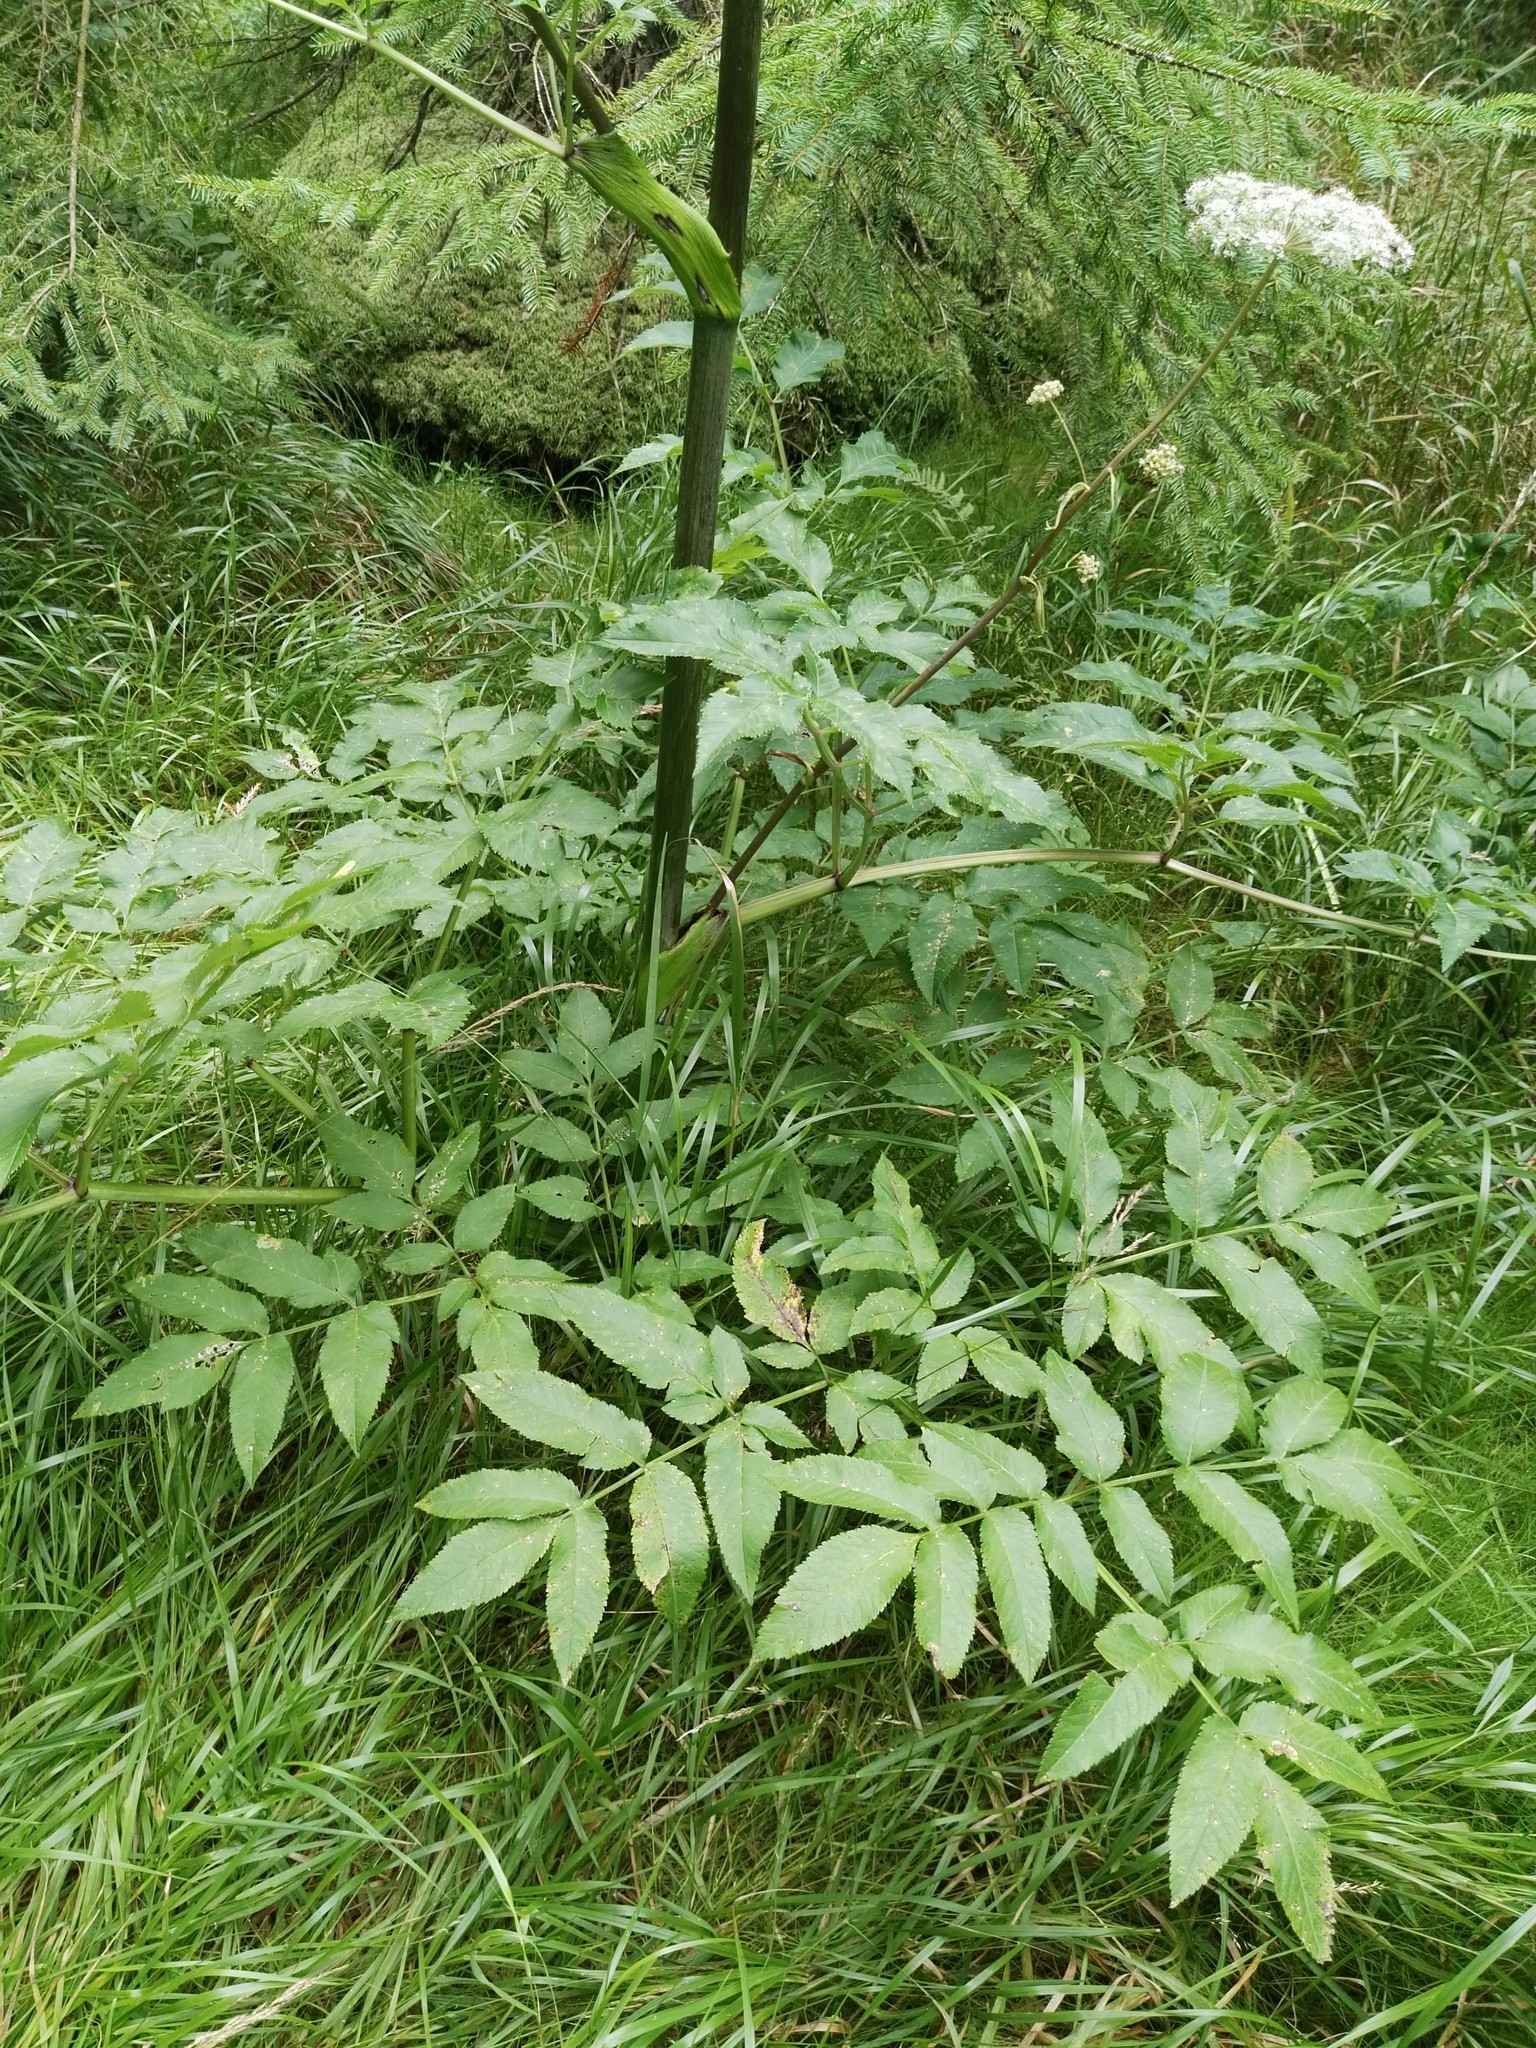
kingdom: Plantae
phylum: Tracheophyta
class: Magnoliopsida
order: Apiales
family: Apiaceae
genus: Angelica
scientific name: Angelica sylvestris
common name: Wild angelica
